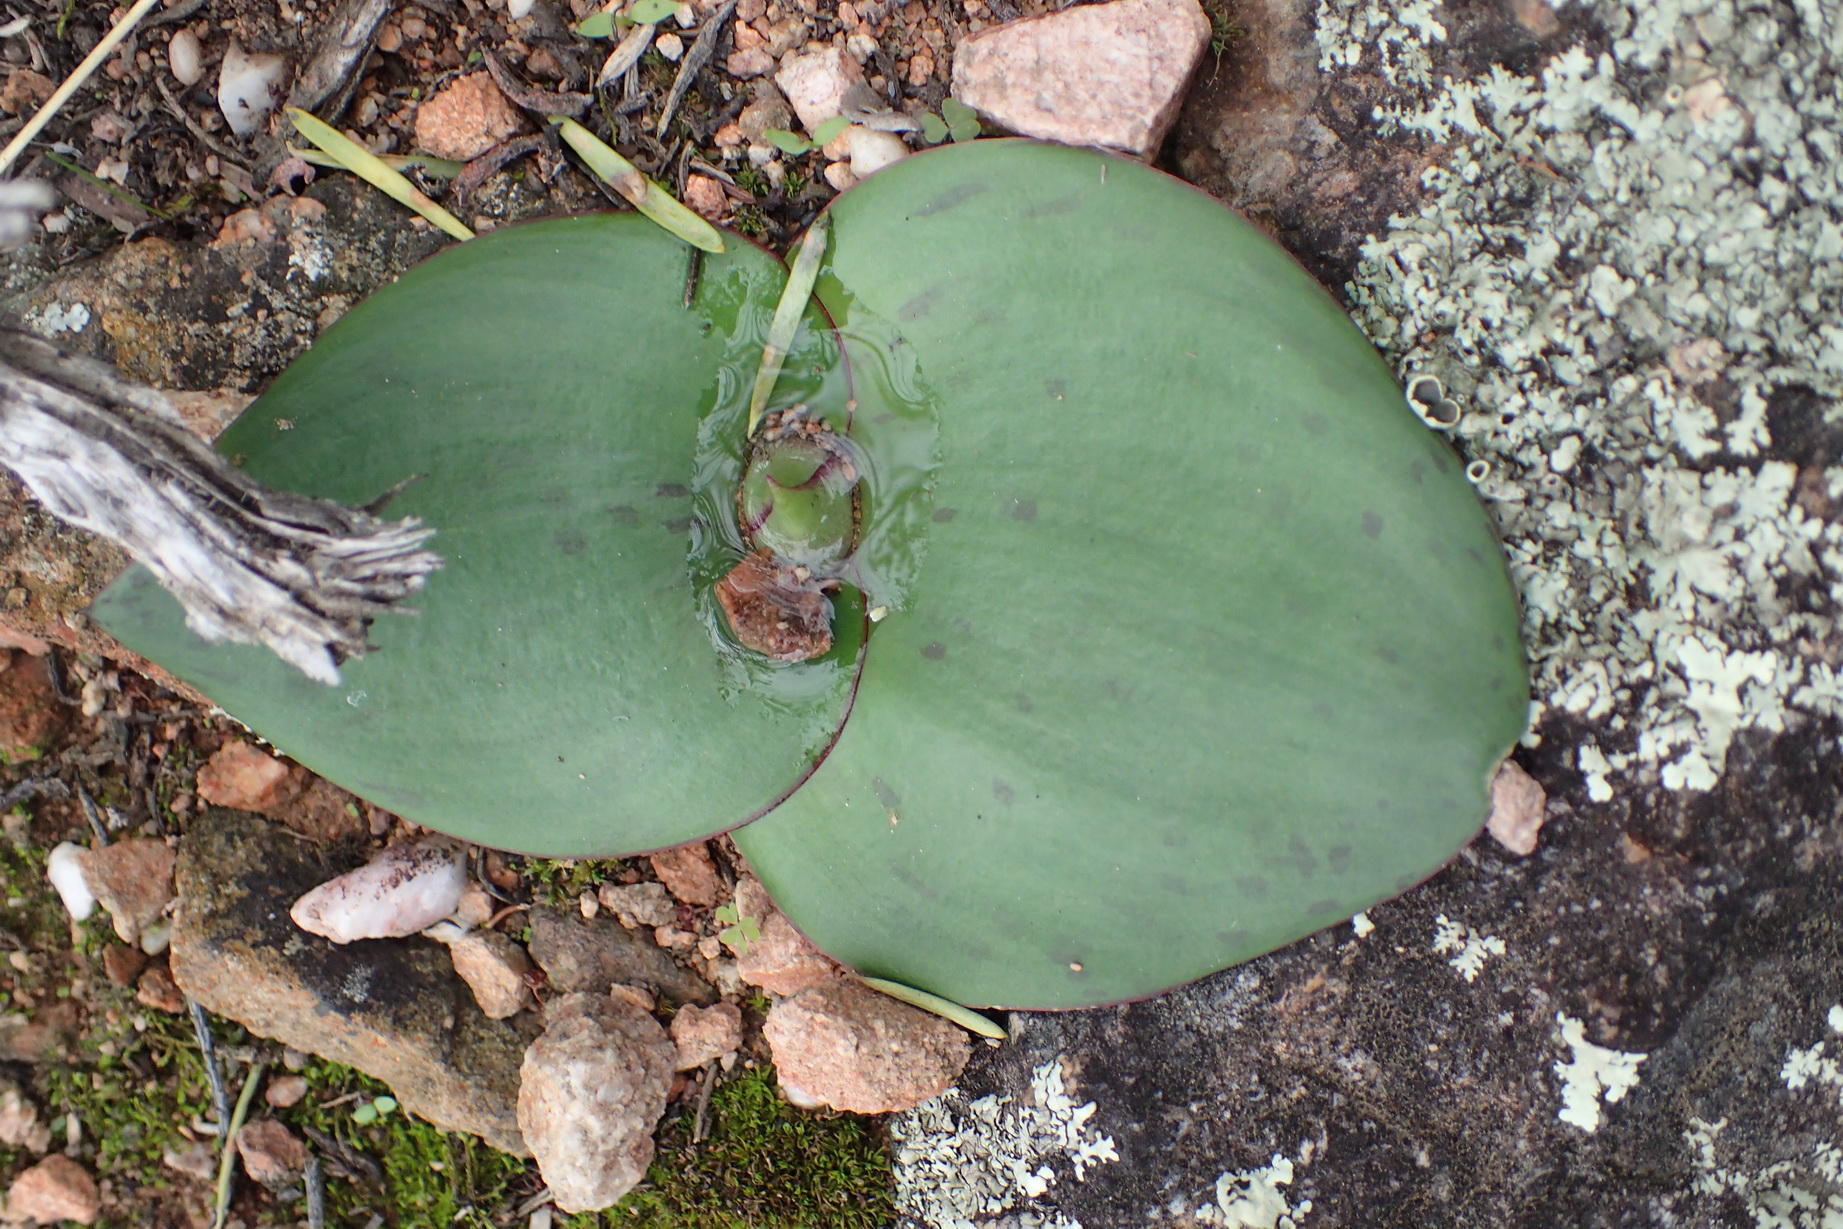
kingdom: Plantae
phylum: Tracheophyta
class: Liliopsida
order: Asparagales
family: Asparagaceae
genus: Massonia
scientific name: Massonia depressa
